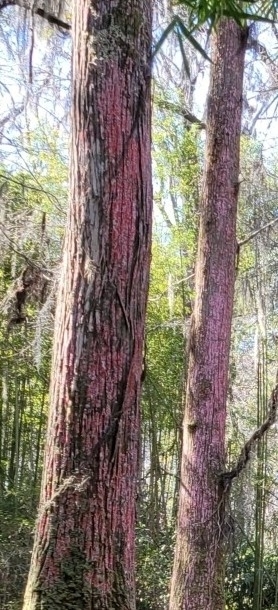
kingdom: Fungi
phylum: Ascomycota
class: Arthoniomycetes
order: Arthoniales
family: Arthoniaceae
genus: Herpothallon
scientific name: Herpothallon rubrocinctum
